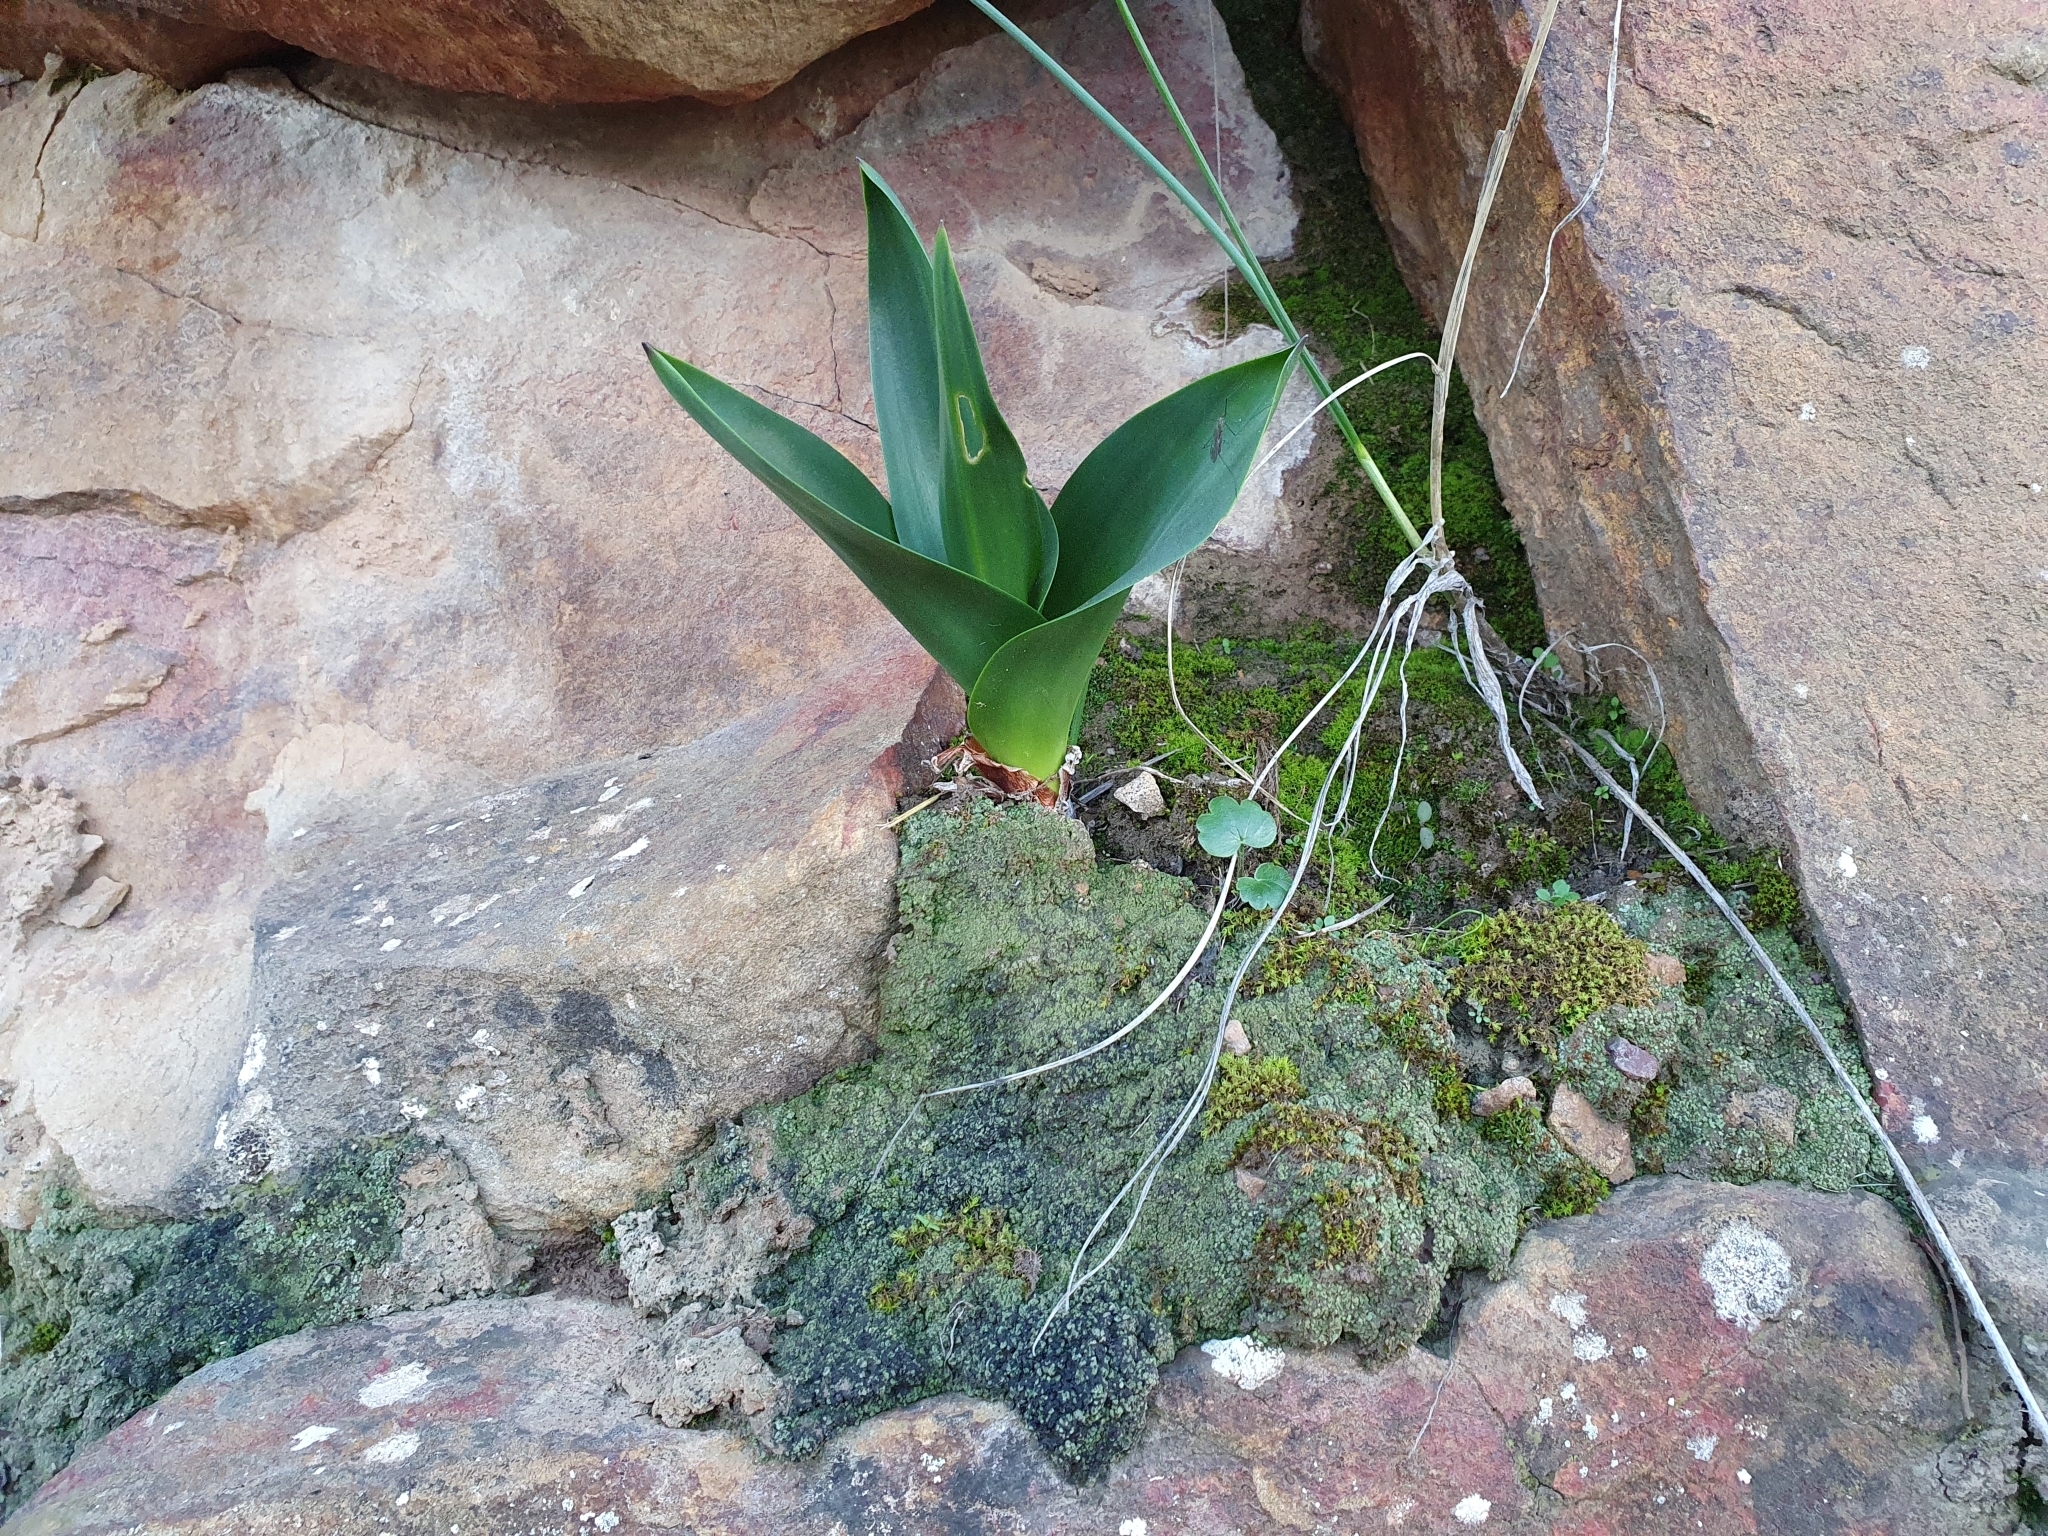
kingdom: Plantae
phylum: Tracheophyta
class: Liliopsida
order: Asparagales
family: Asparagaceae
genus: Drimia
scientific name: Drimia numidica
